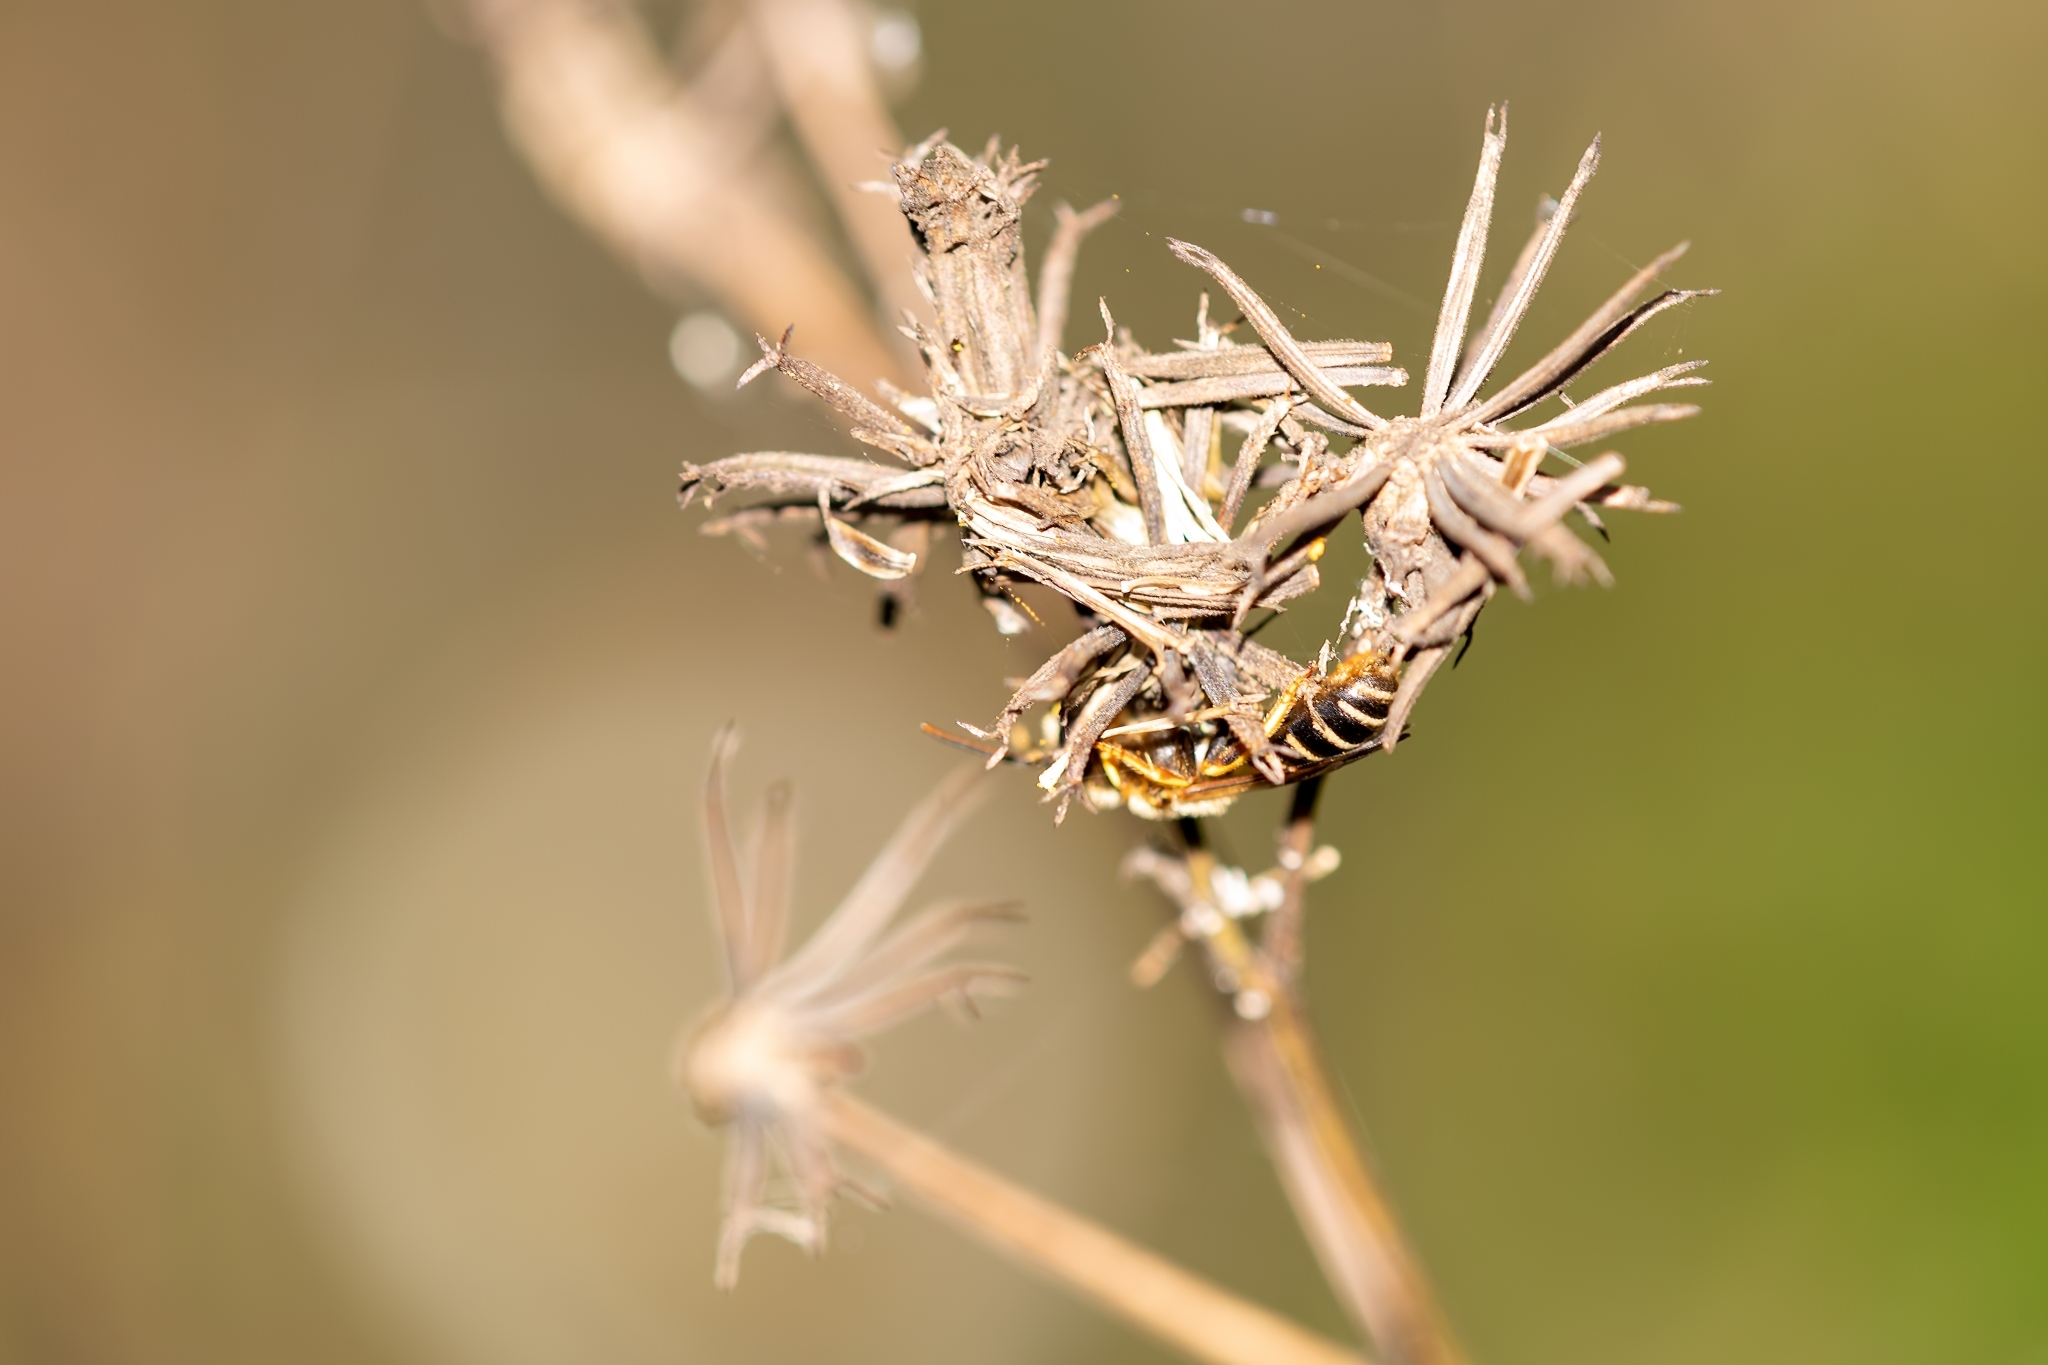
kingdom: Animalia
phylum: Arthropoda
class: Insecta
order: Hymenoptera
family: Halictidae
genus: Halictus
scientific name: Halictus poeyi
